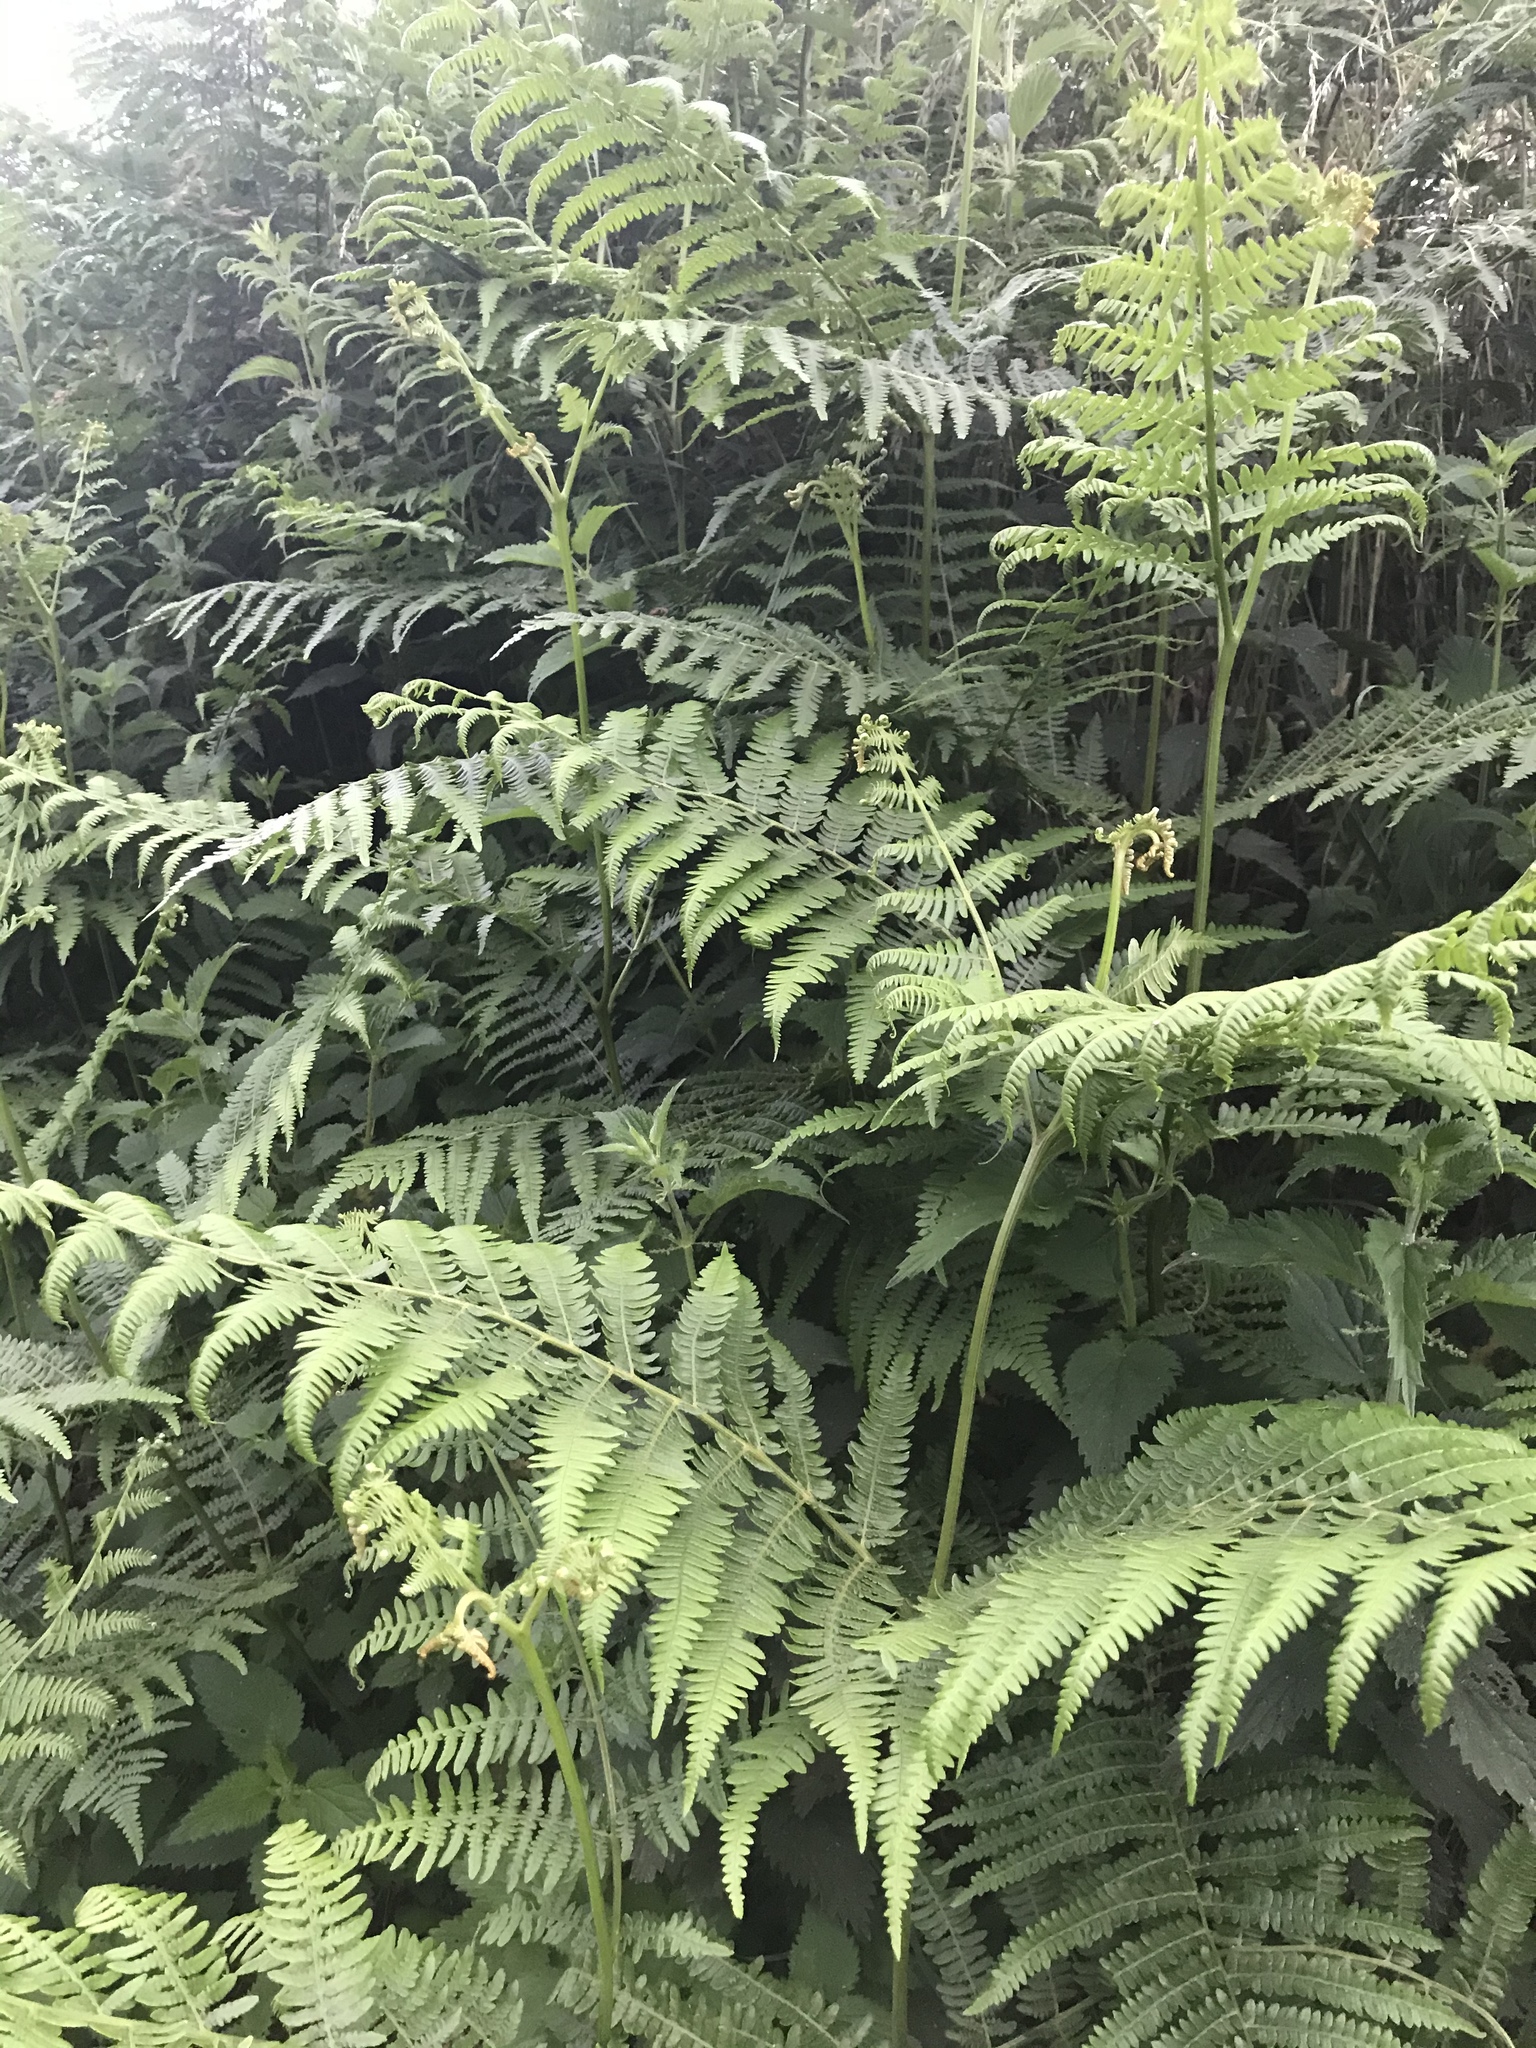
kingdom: Plantae
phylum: Tracheophyta
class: Polypodiopsida
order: Polypodiales
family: Dennstaedtiaceae
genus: Pteridium
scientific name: Pteridium aquilinum
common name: Bracken
